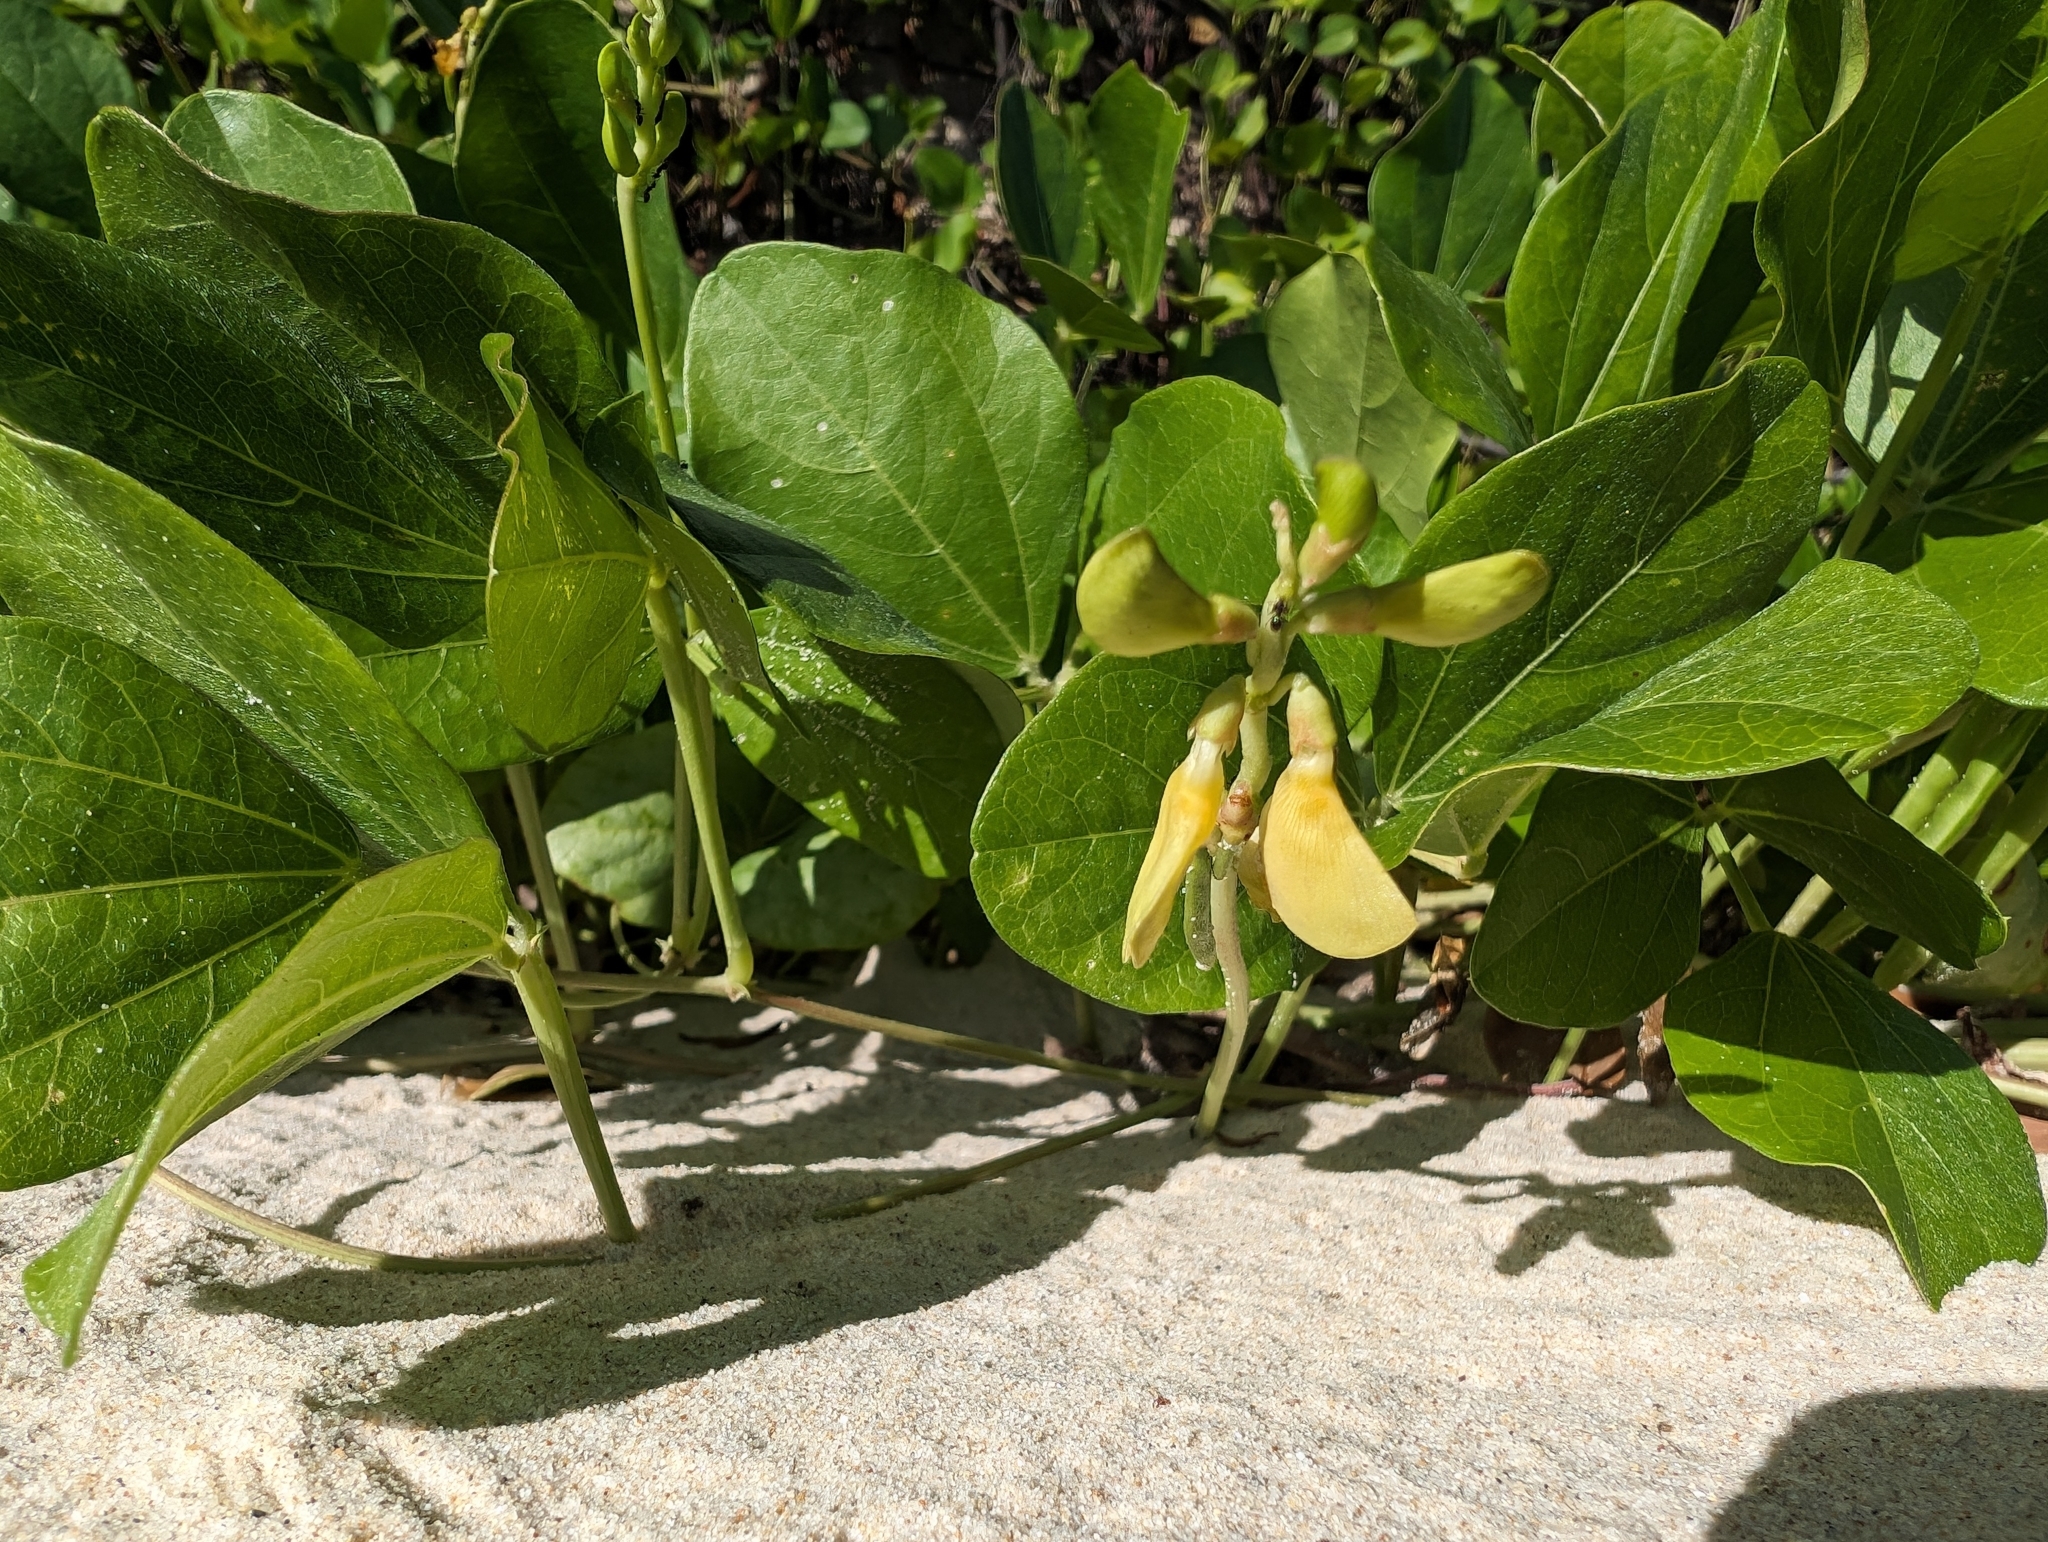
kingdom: Plantae
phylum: Tracheophyta
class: Magnoliopsida
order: Fabales
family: Fabaceae
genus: Vigna
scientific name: Vigna marina
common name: Dune-bean
